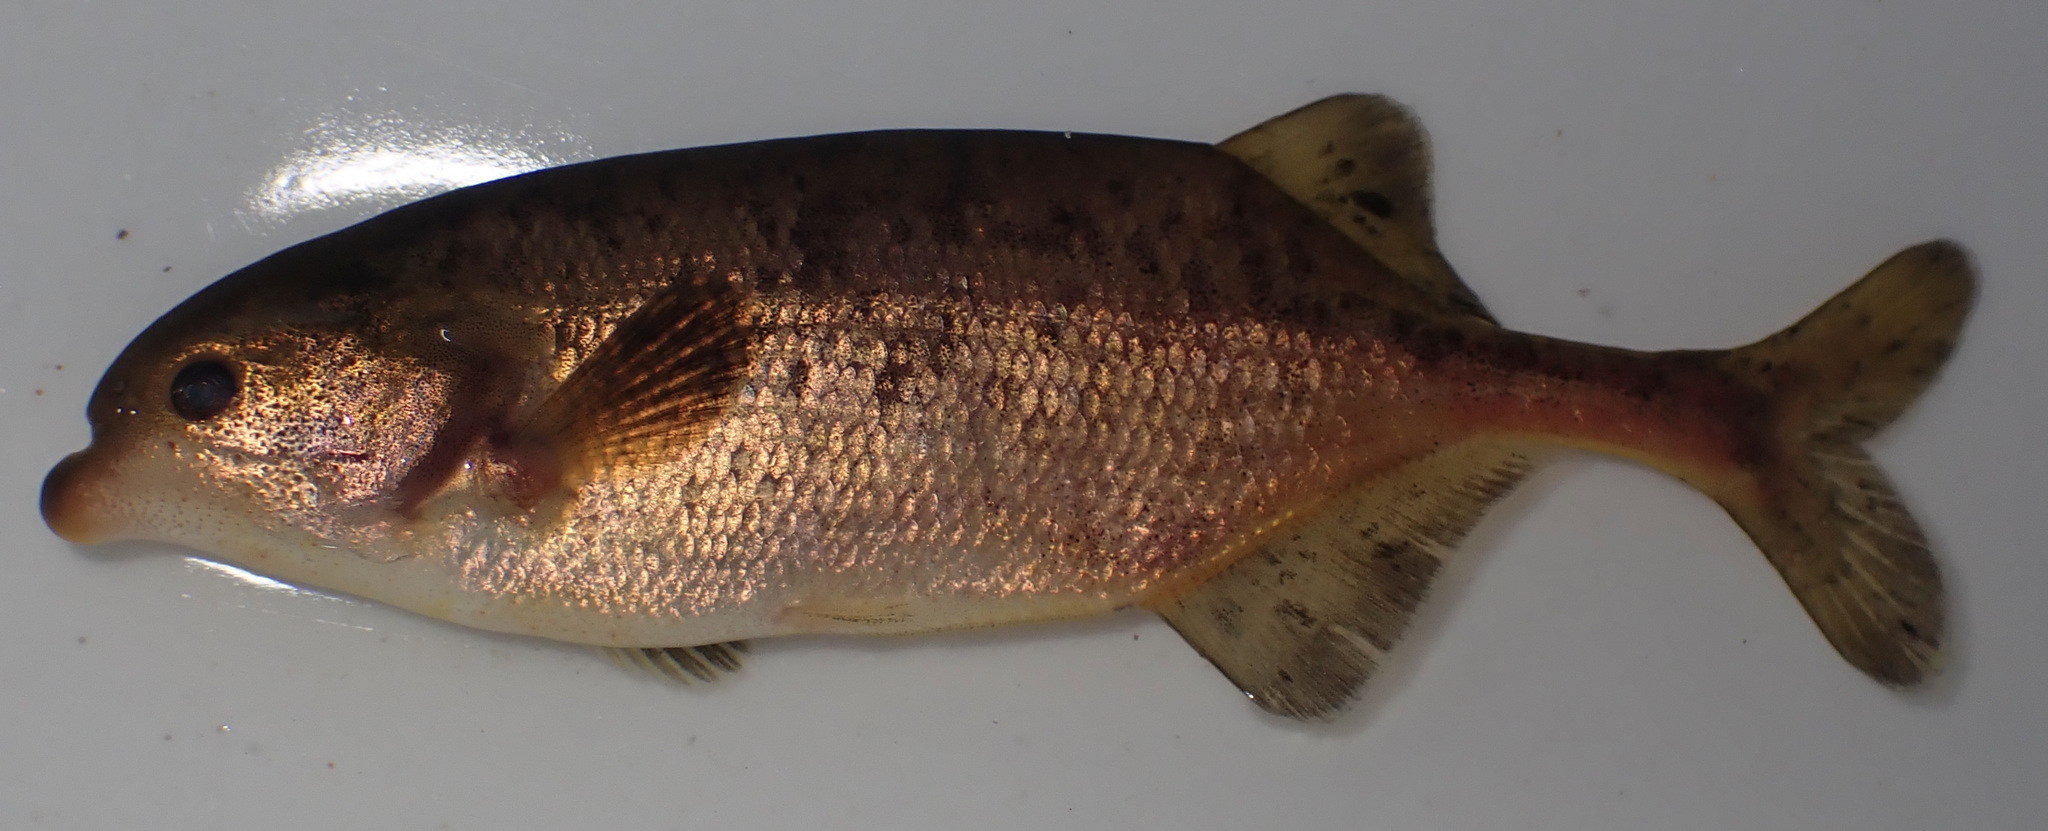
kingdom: Animalia
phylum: Chordata
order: Osteoglossiformes
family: Mormyridae
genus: Marcusenius
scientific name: Marcusenius altisambesi
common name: Bulldog
